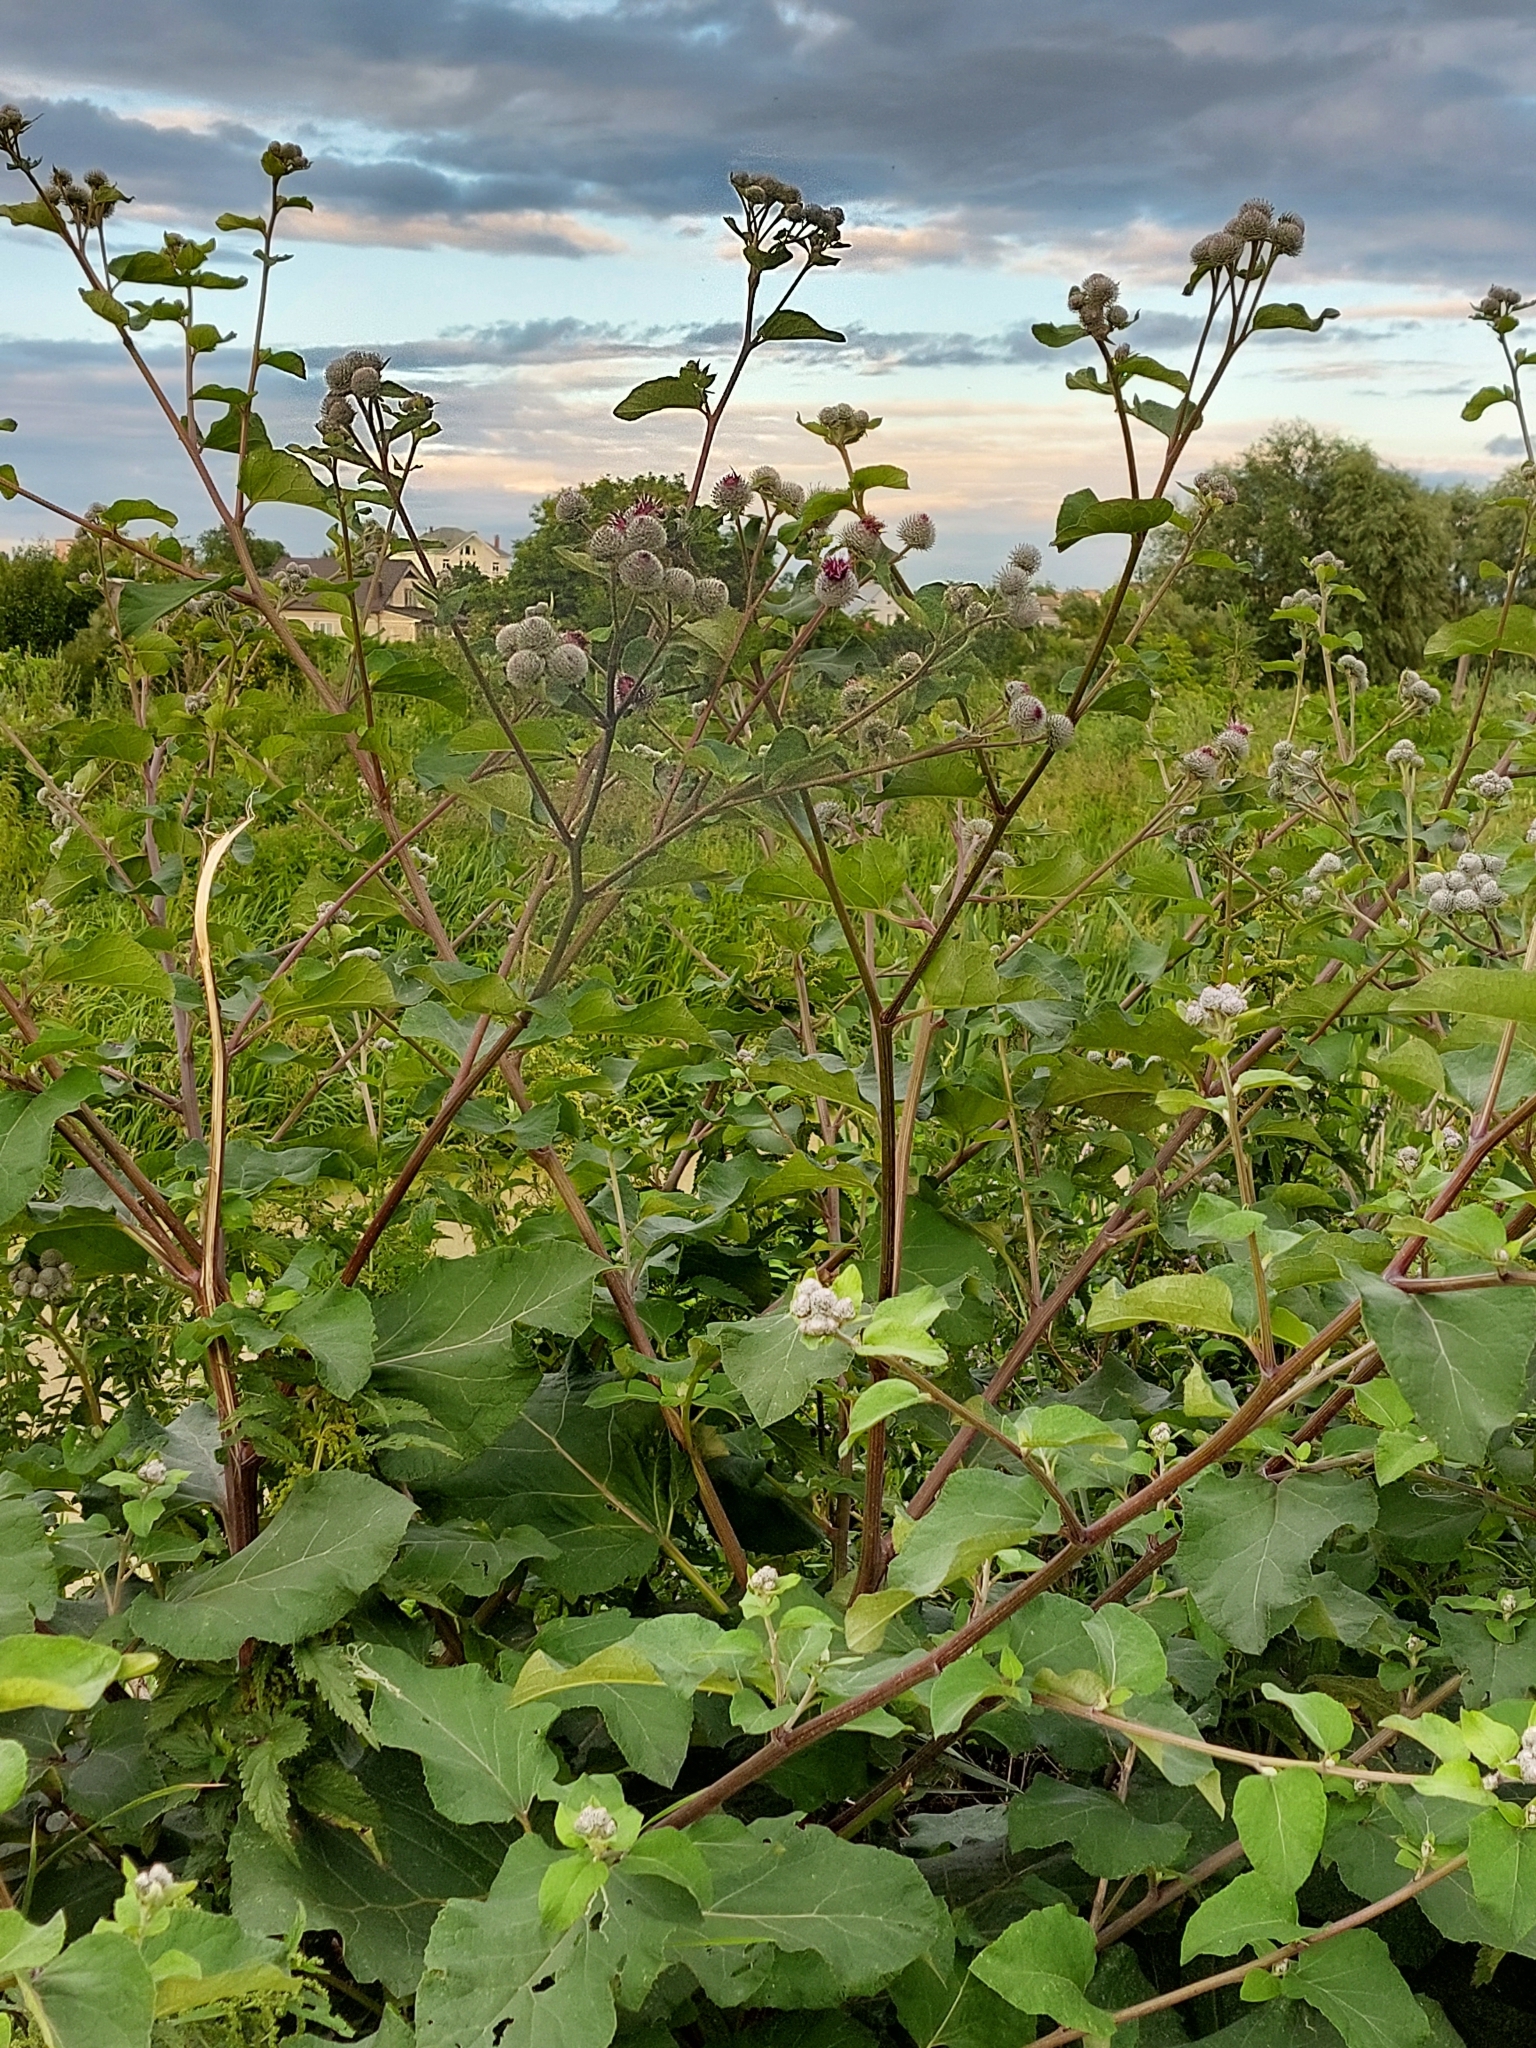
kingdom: Plantae
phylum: Tracheophyta
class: Magnoliopsida
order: Asterales
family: Asteraceae
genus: Arctium
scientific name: Arctium tomentosum
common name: Woolly burdock
